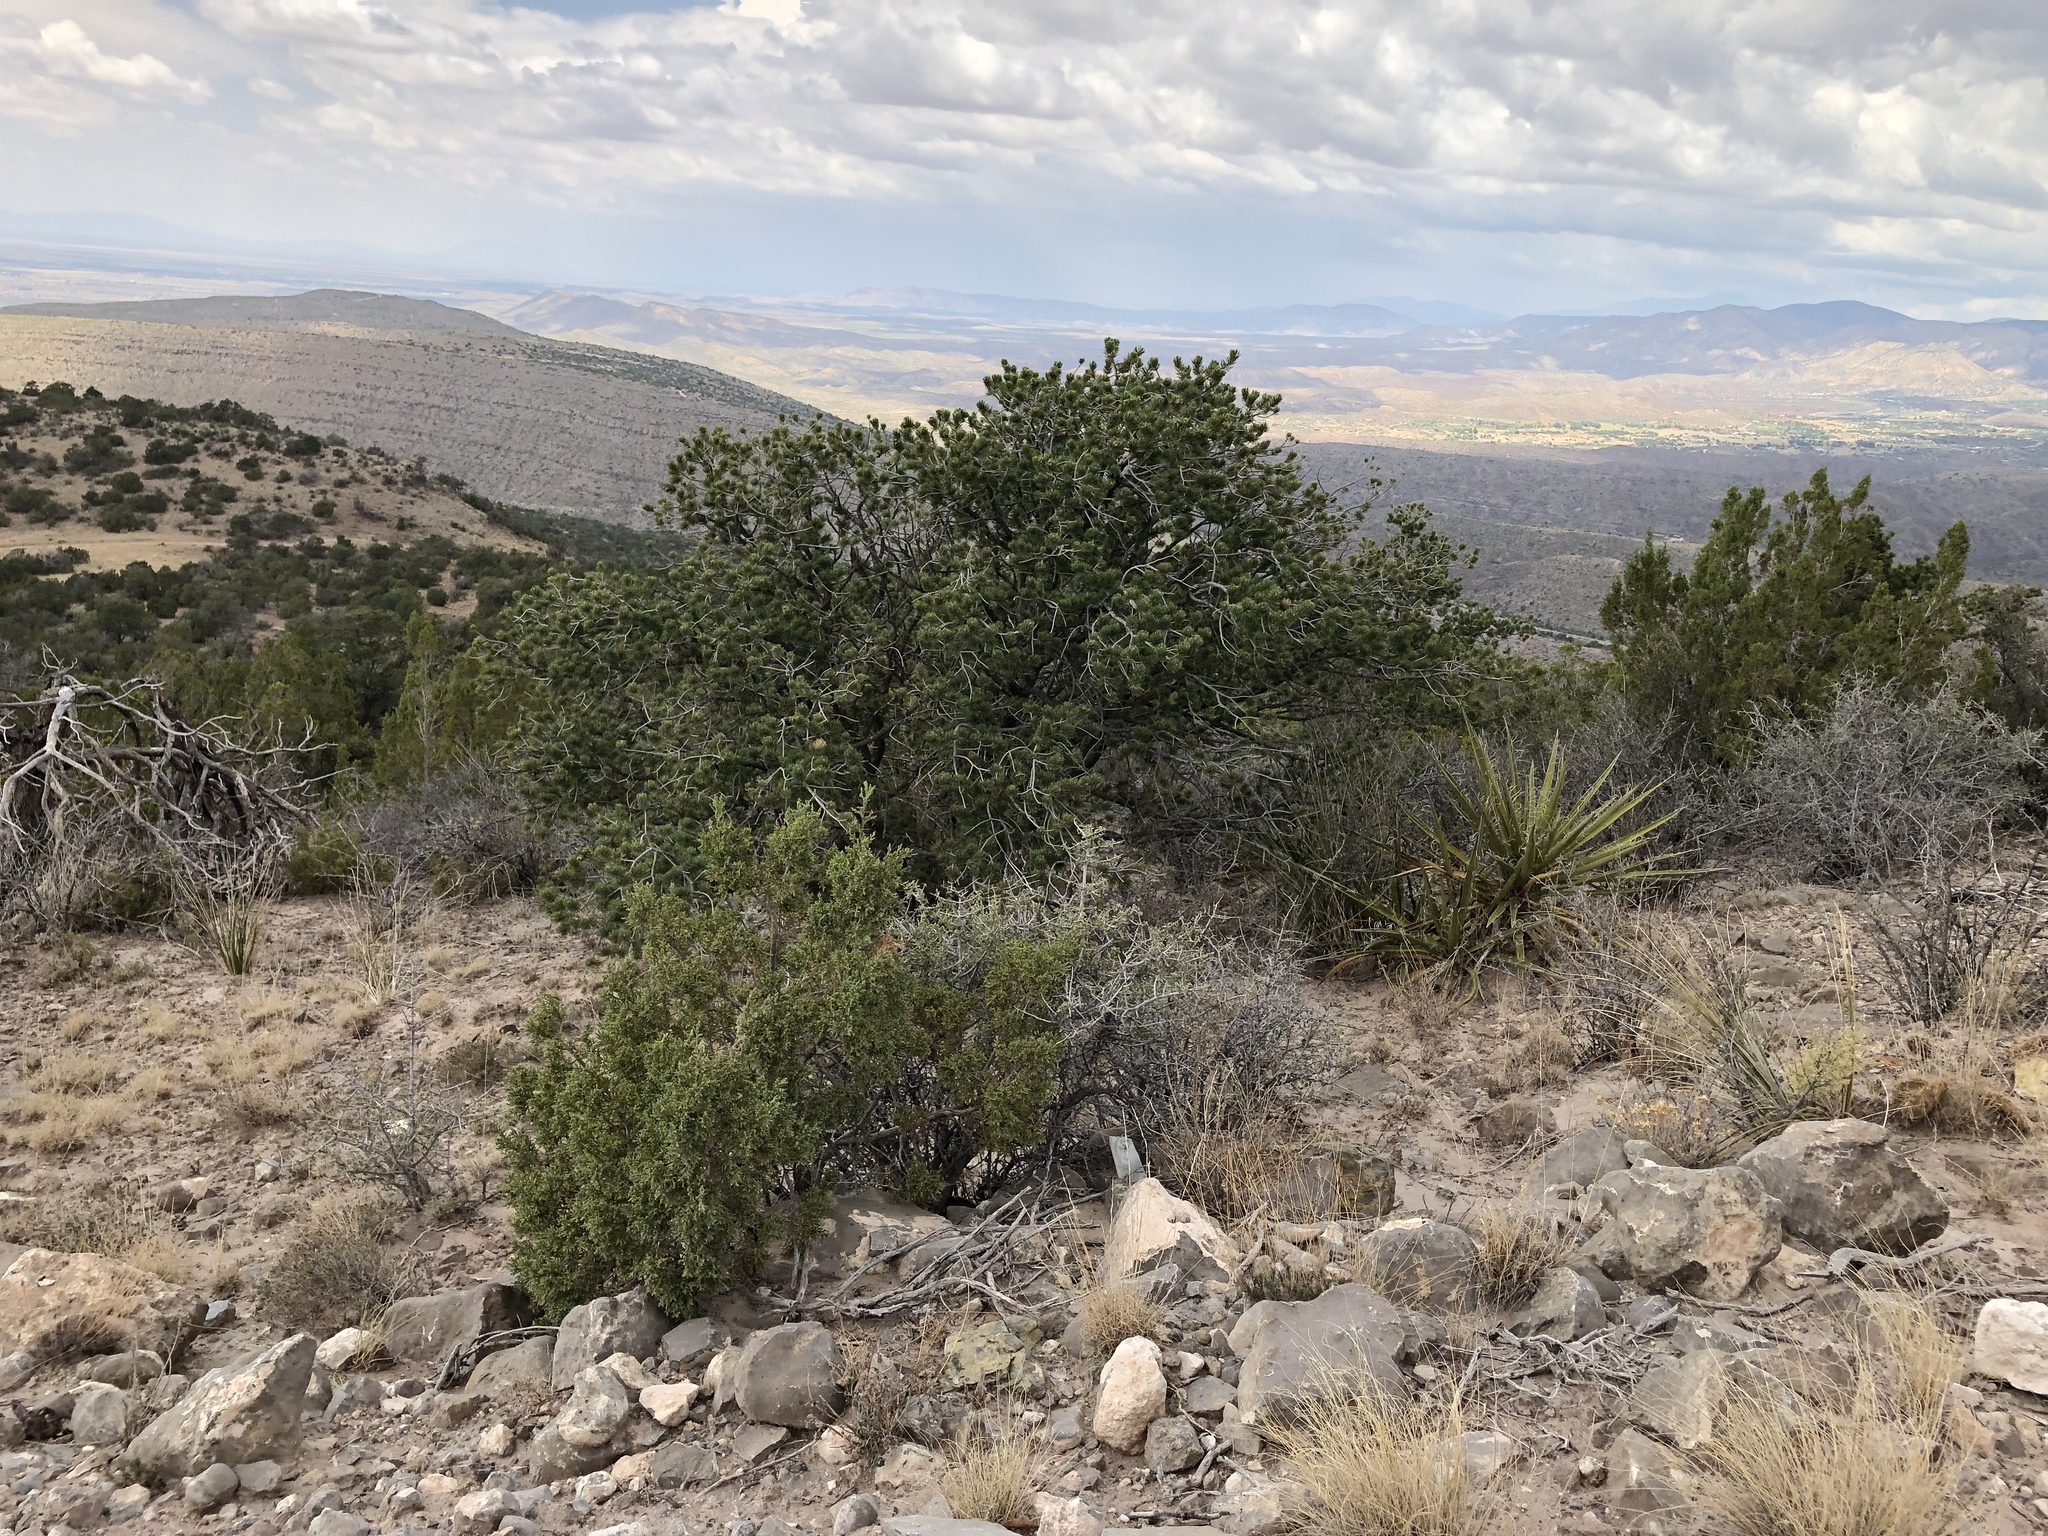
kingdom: Plantae
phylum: Tracheophyta
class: Pinopsida
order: Pinales
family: Pinaceae
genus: Pinus
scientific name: Pinus edulis
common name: Colorado pinyon
